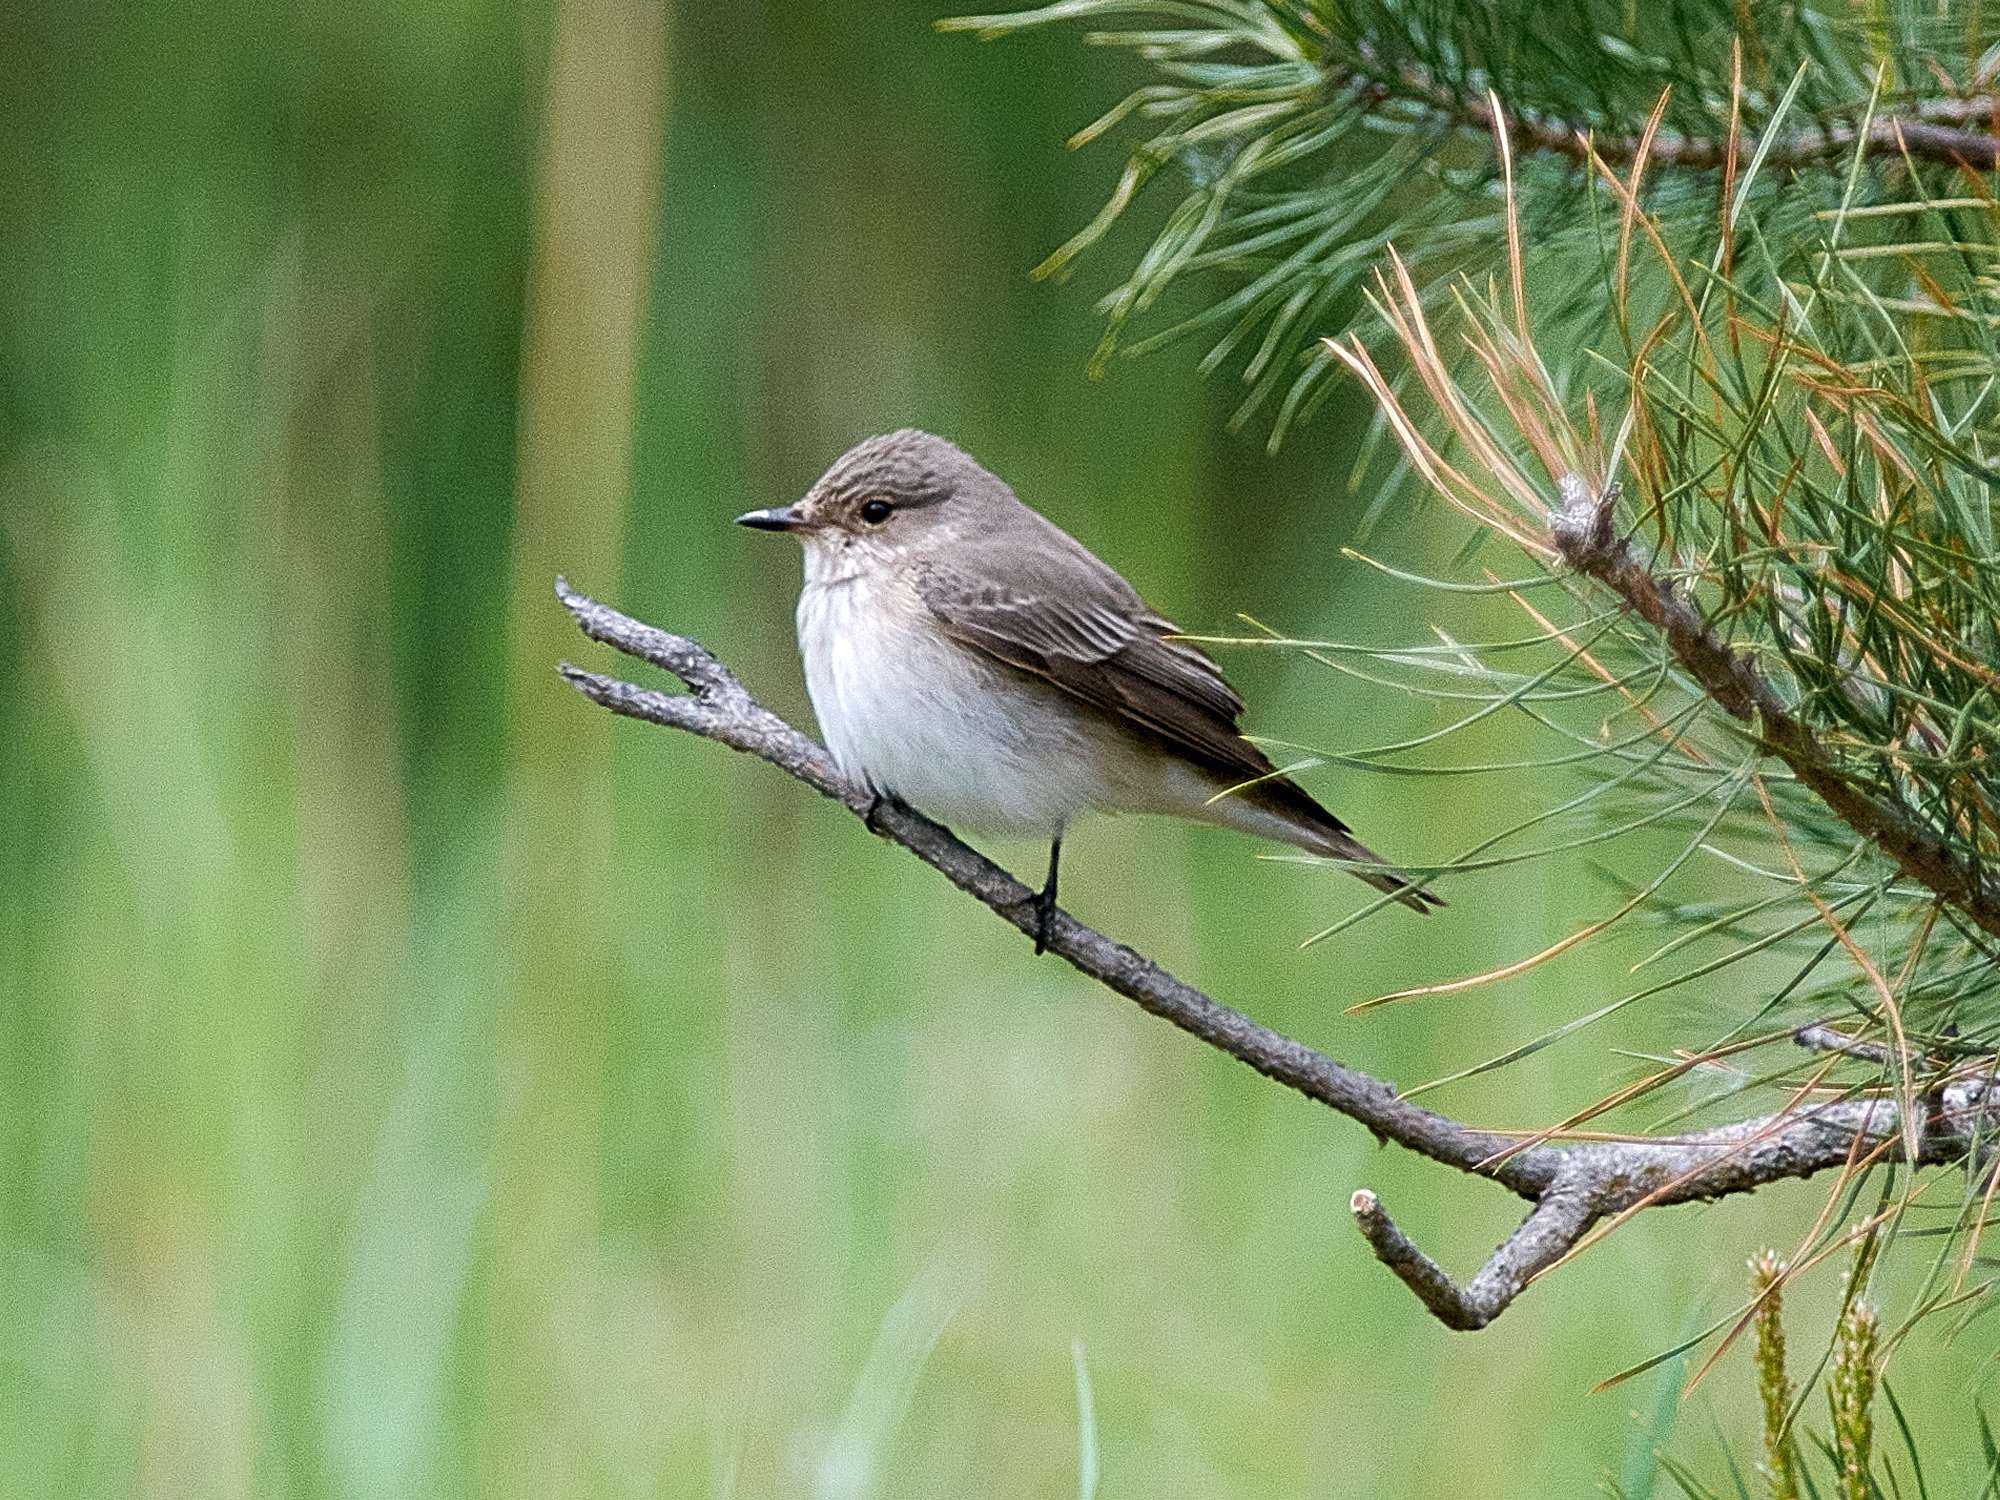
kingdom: Animalia
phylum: Chordata
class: Aves
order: Passeriformes
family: Muscicapidae
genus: Muscicapa
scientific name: Muscicapa striata
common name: Spotted flycatcher
